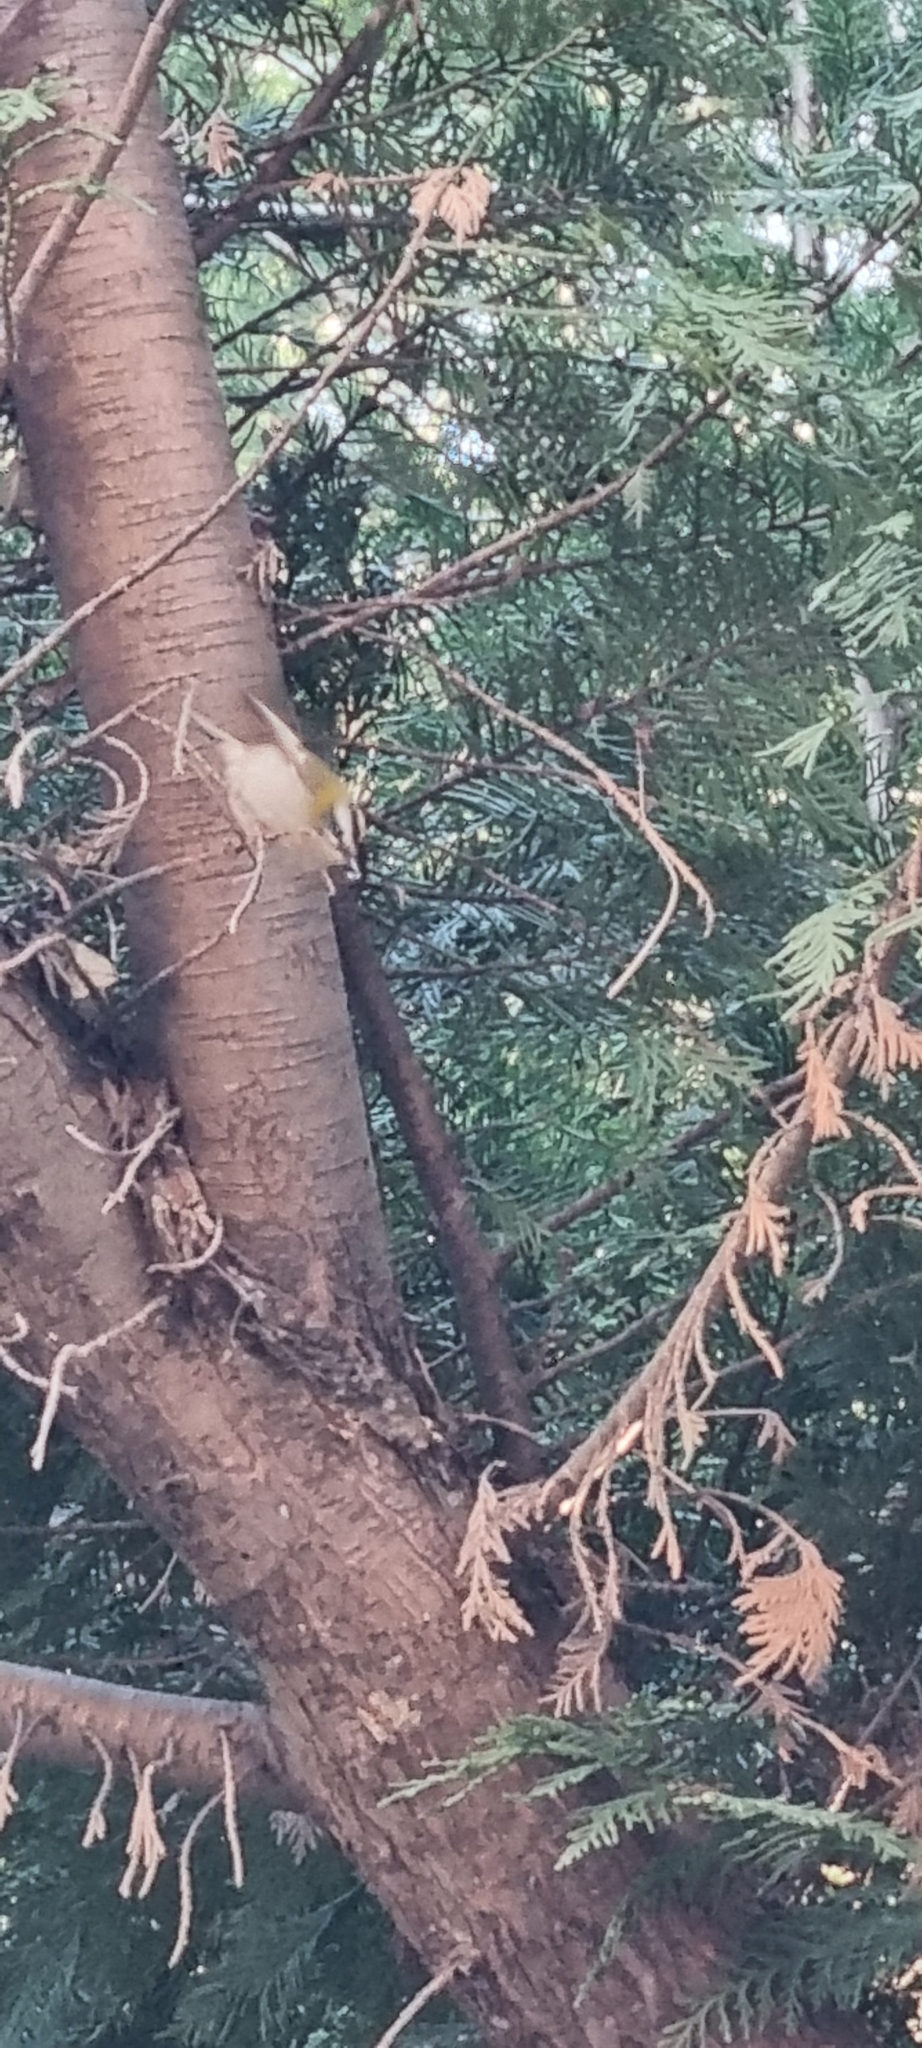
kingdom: Animalia
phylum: Chordata
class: Aves
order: Passeriformes
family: Regulidae
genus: Regulus
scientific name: Regulus ignicapilla
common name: Firecrest
